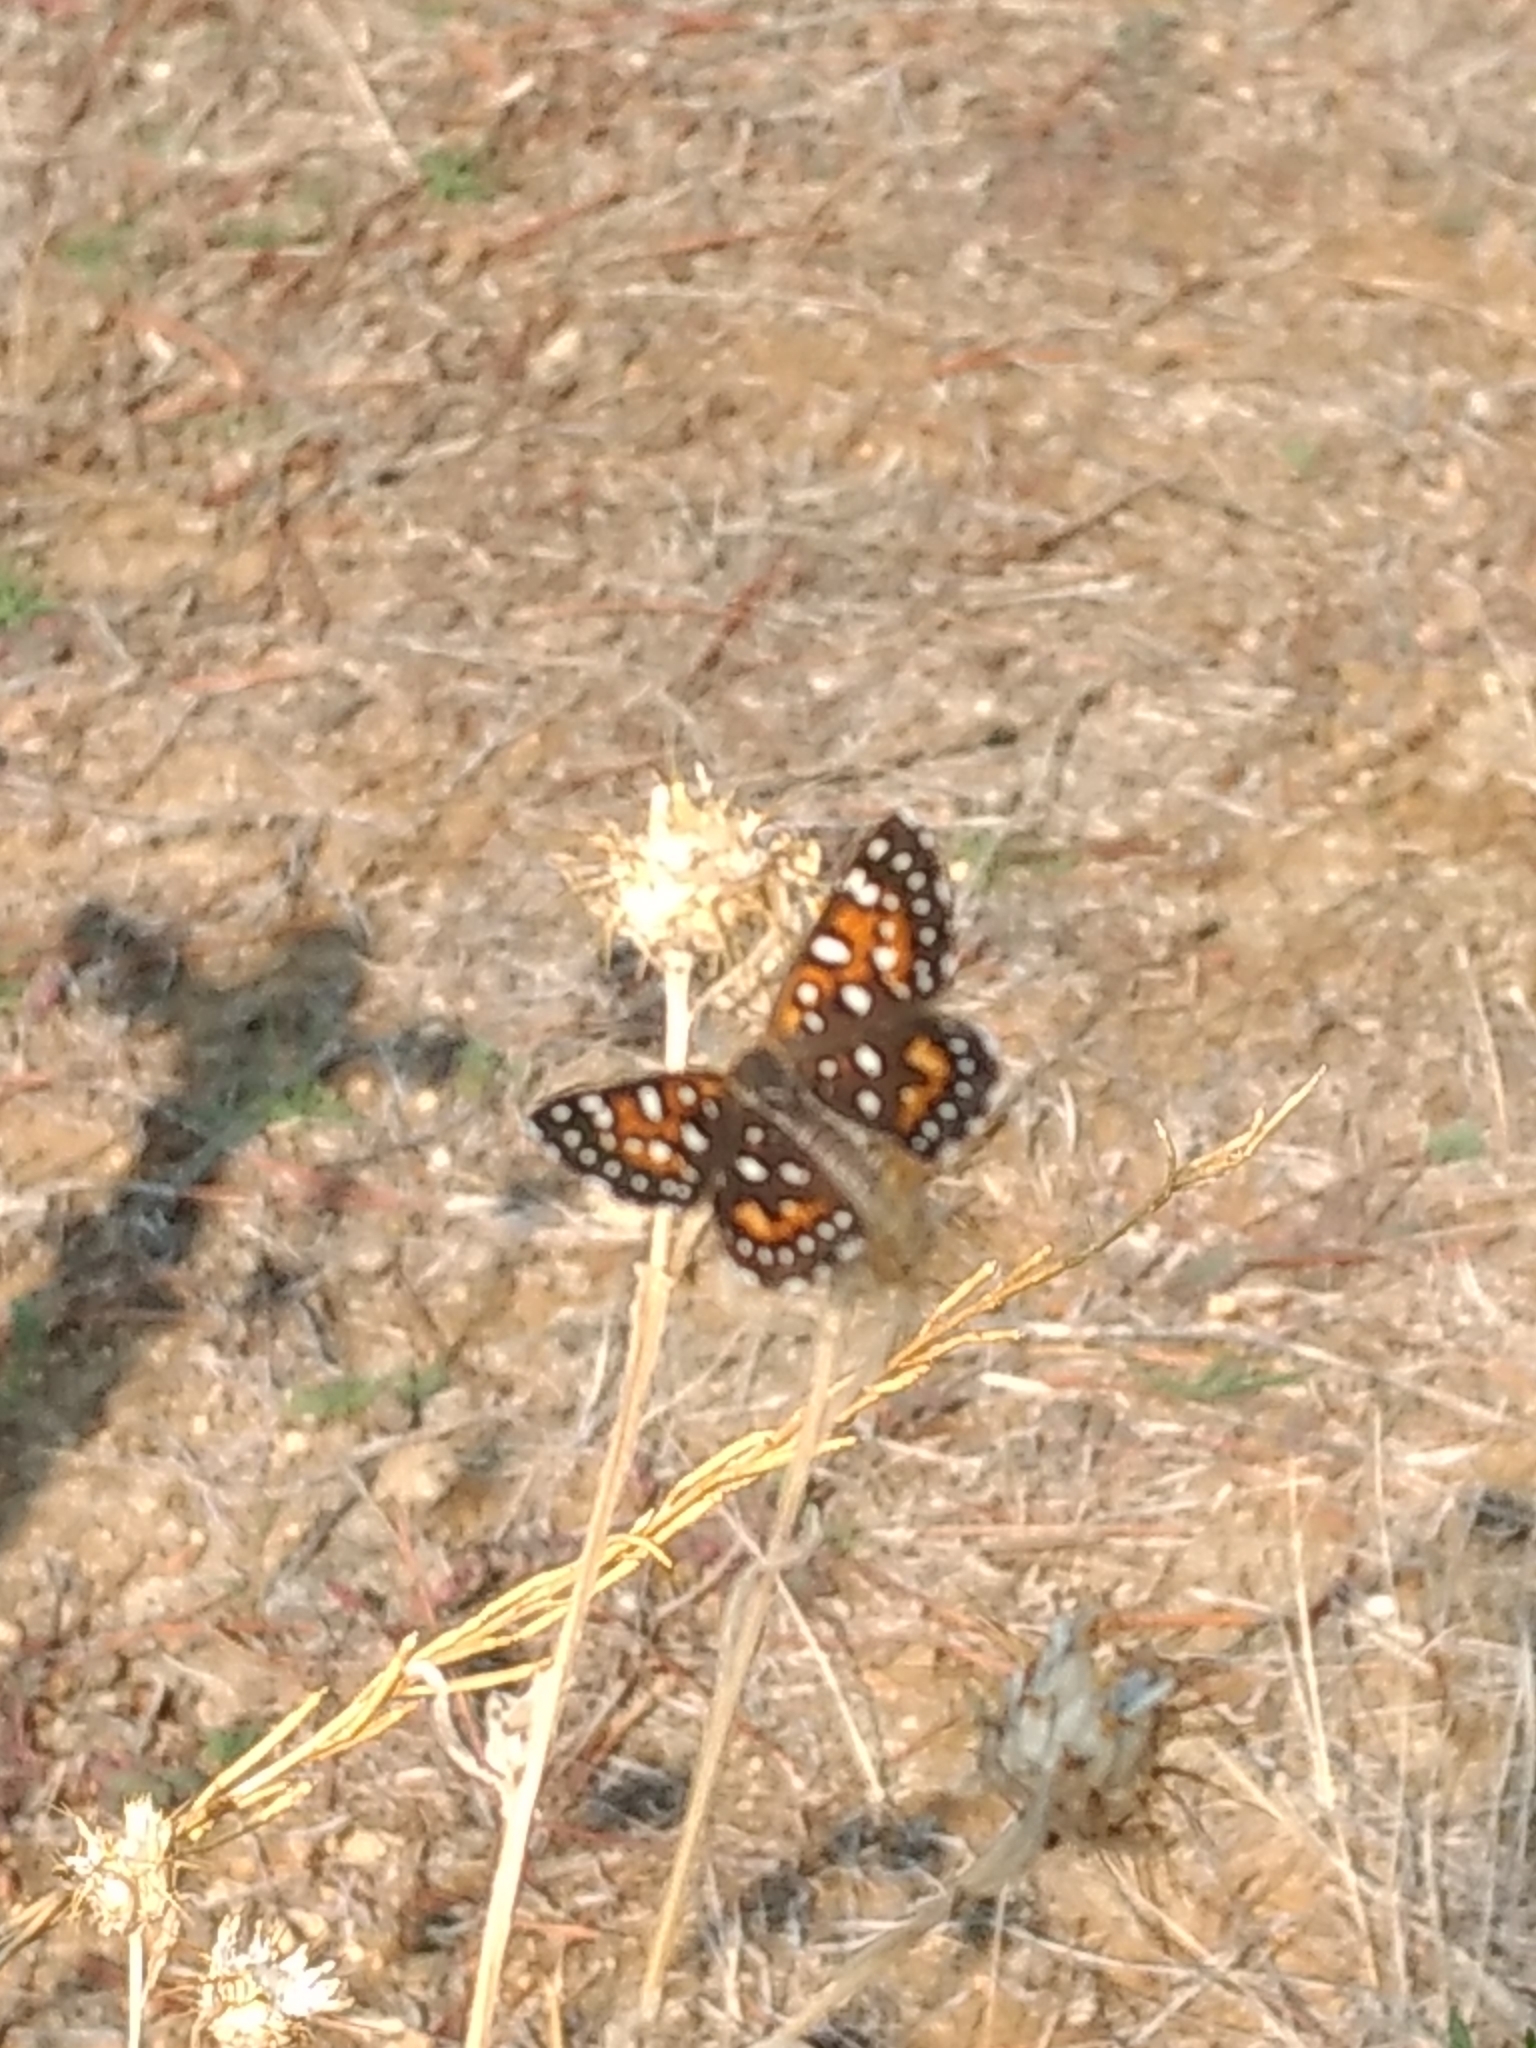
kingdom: Animalia
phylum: Arthropoda
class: Insecta
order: Lepidoptera
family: Riodinidae
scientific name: Riodinidae
